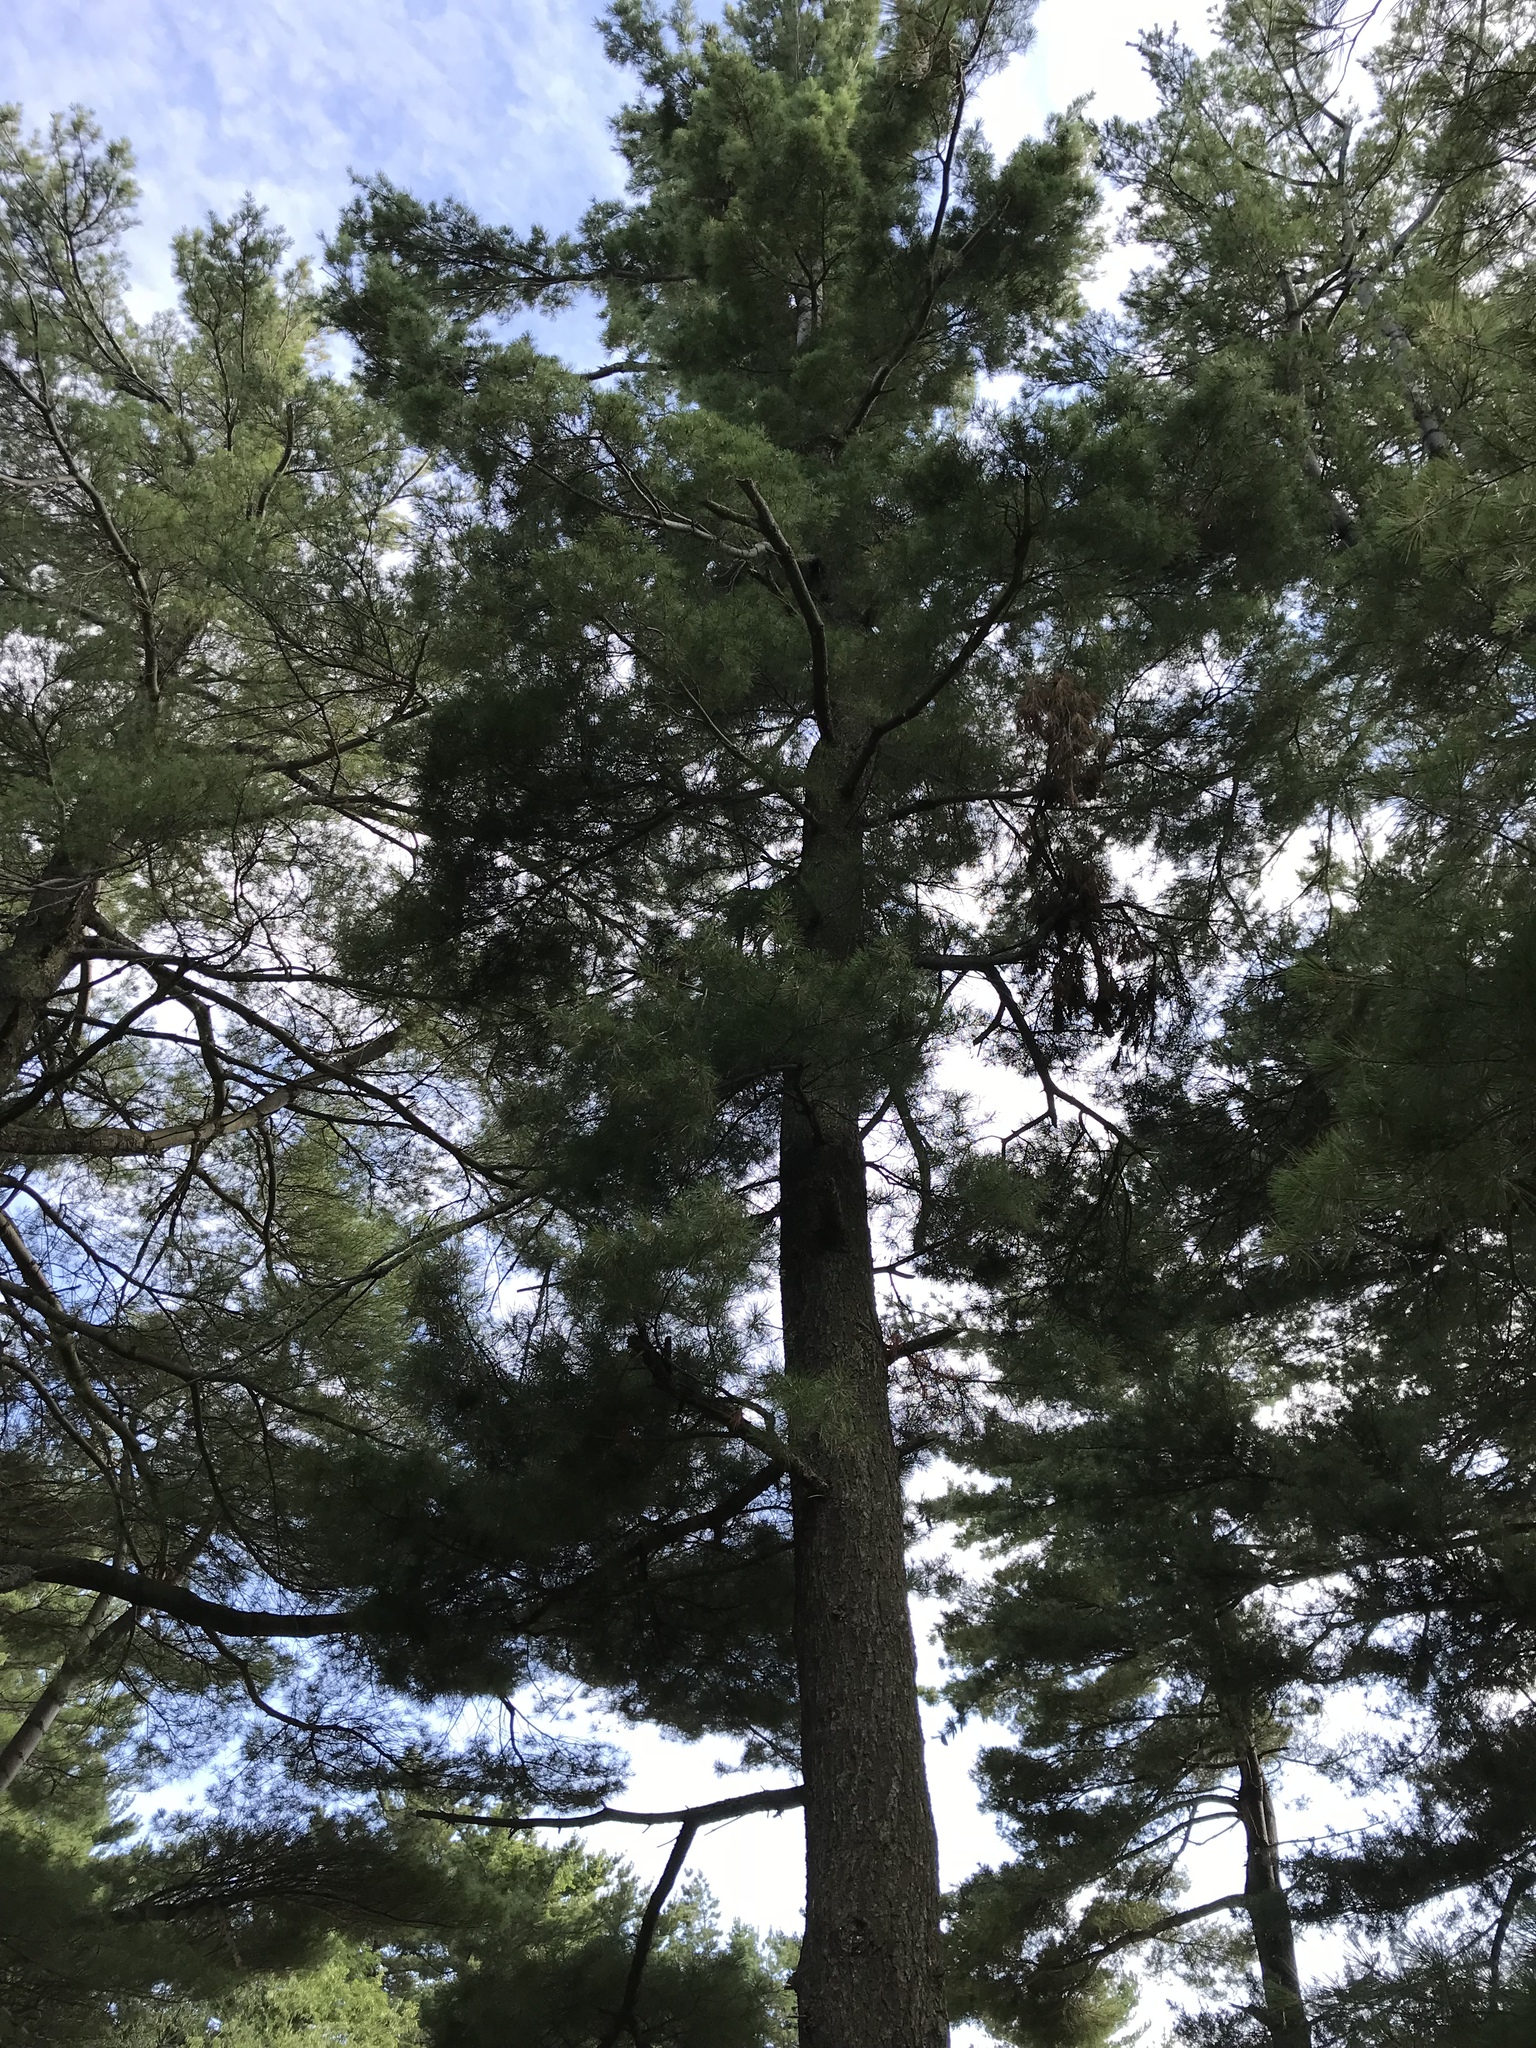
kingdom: Plantae
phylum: Tracheophyta
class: Pinopsida
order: Pinales
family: Pinaceae
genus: Pinus
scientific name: Pinus strobus
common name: Weymouth pine
